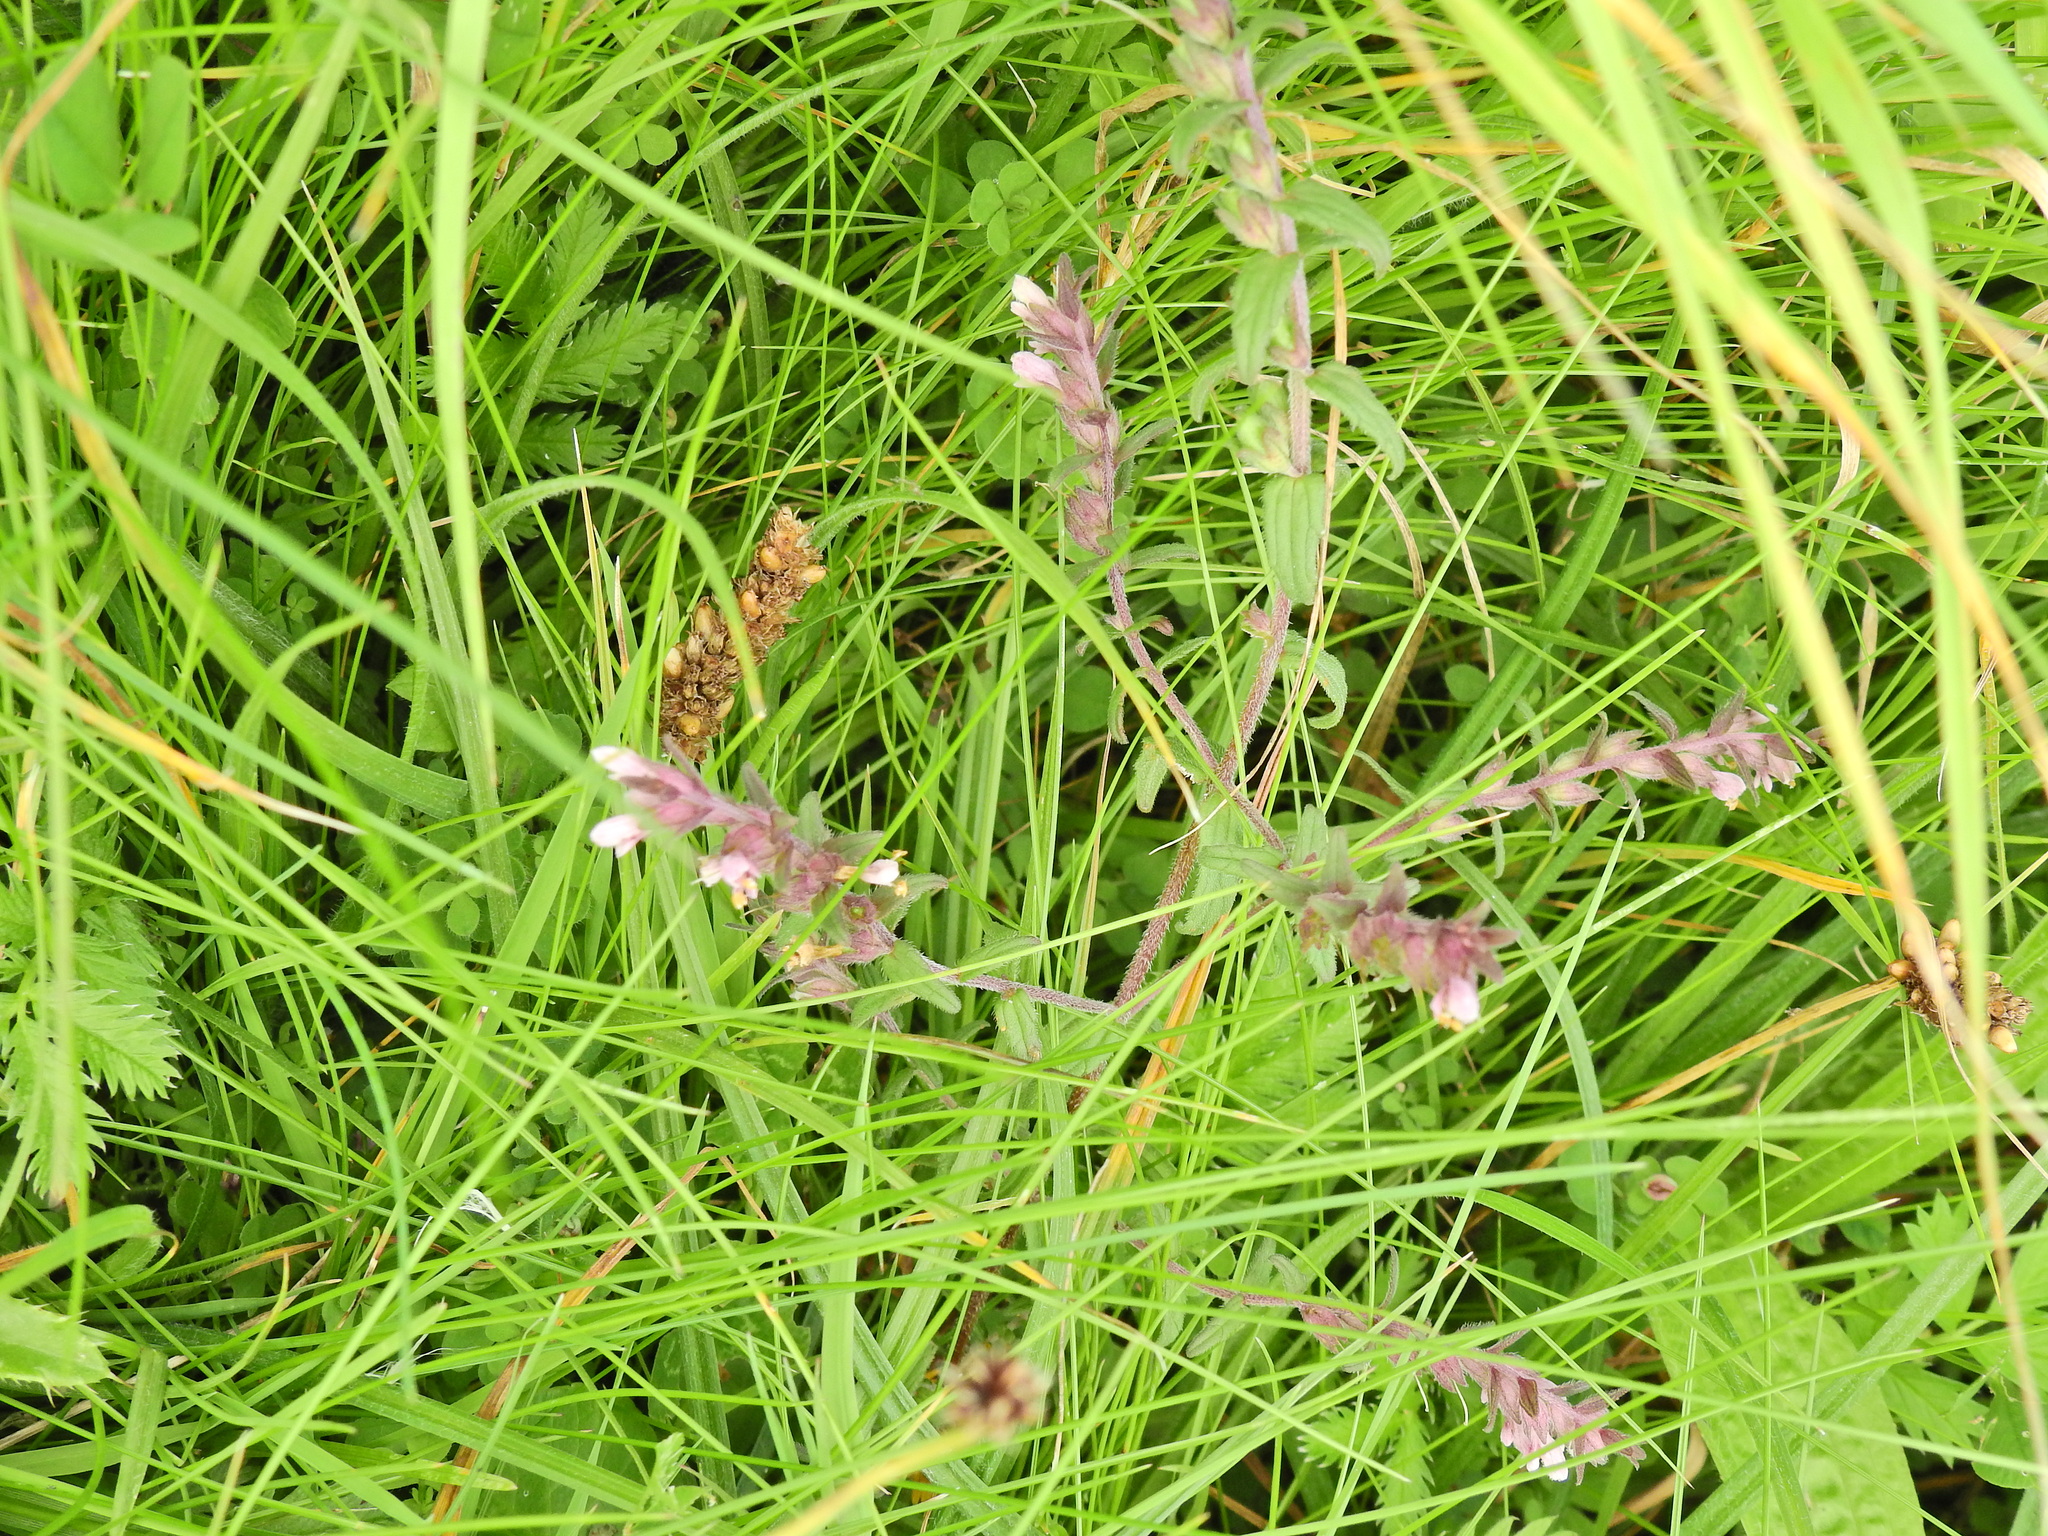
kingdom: Plantae
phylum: Tracheophyta
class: Magnoliopsida
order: Lamiales
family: Orobanchaceae
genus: Odontites
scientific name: Odontites vulgaris
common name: Broomrape
